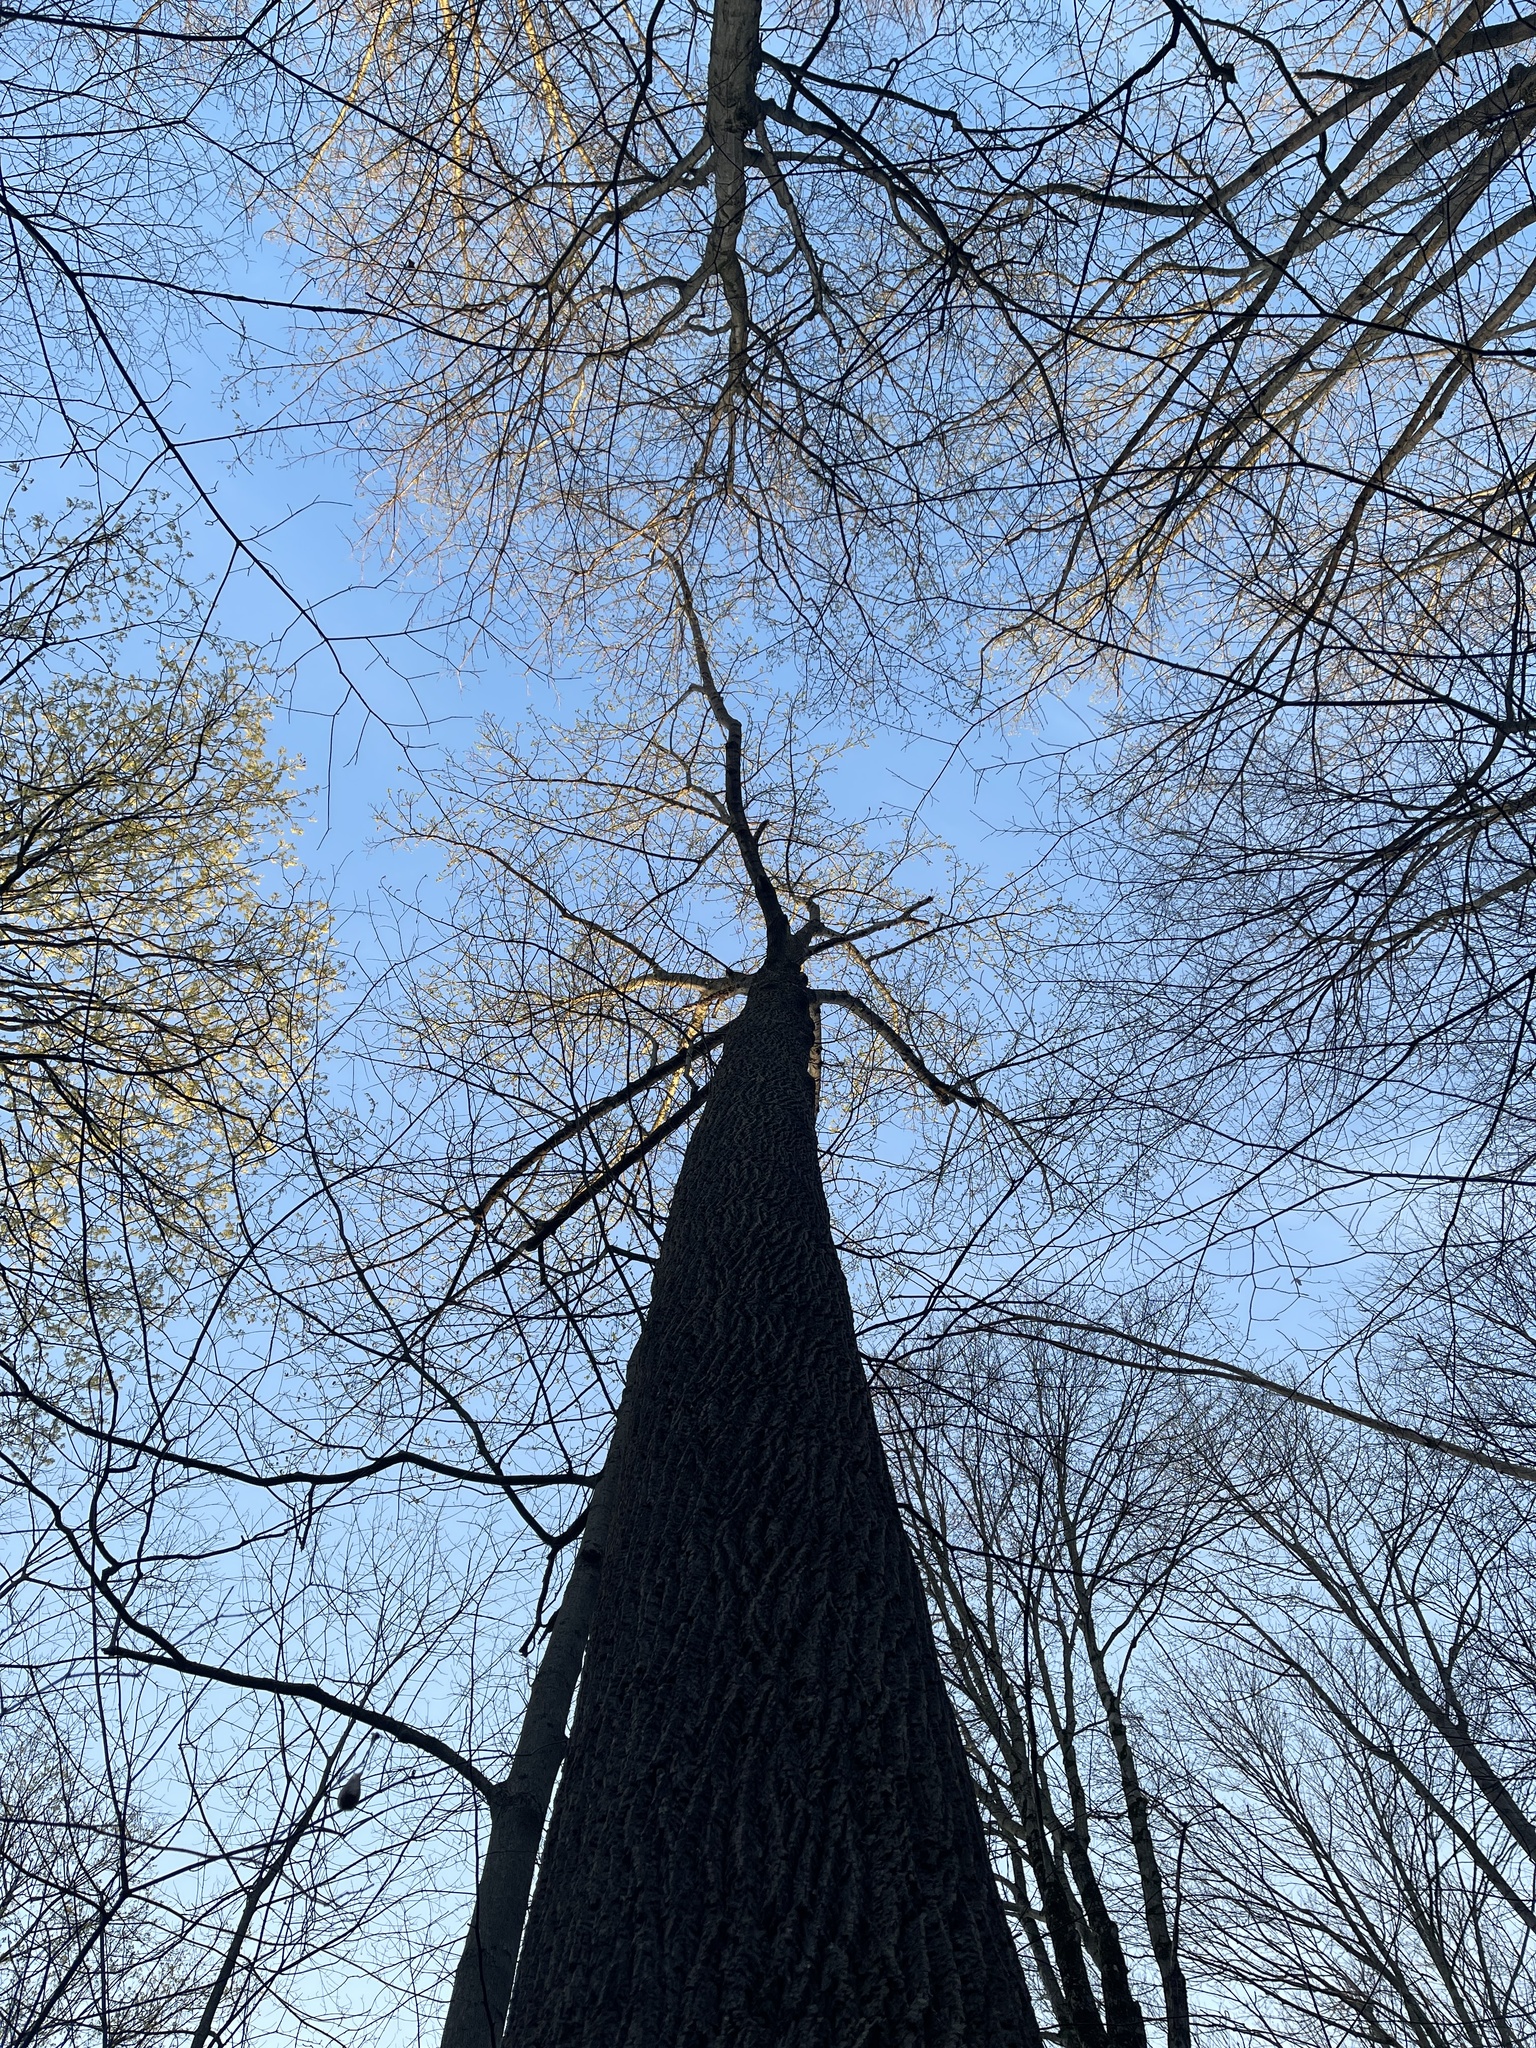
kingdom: Plantae
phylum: Tracheophyta
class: Magnoliopsida
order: Magnoliales
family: Magnoliaceae
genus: Liriodendron
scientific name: Liriodendron tulipifera
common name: Tulip tree
